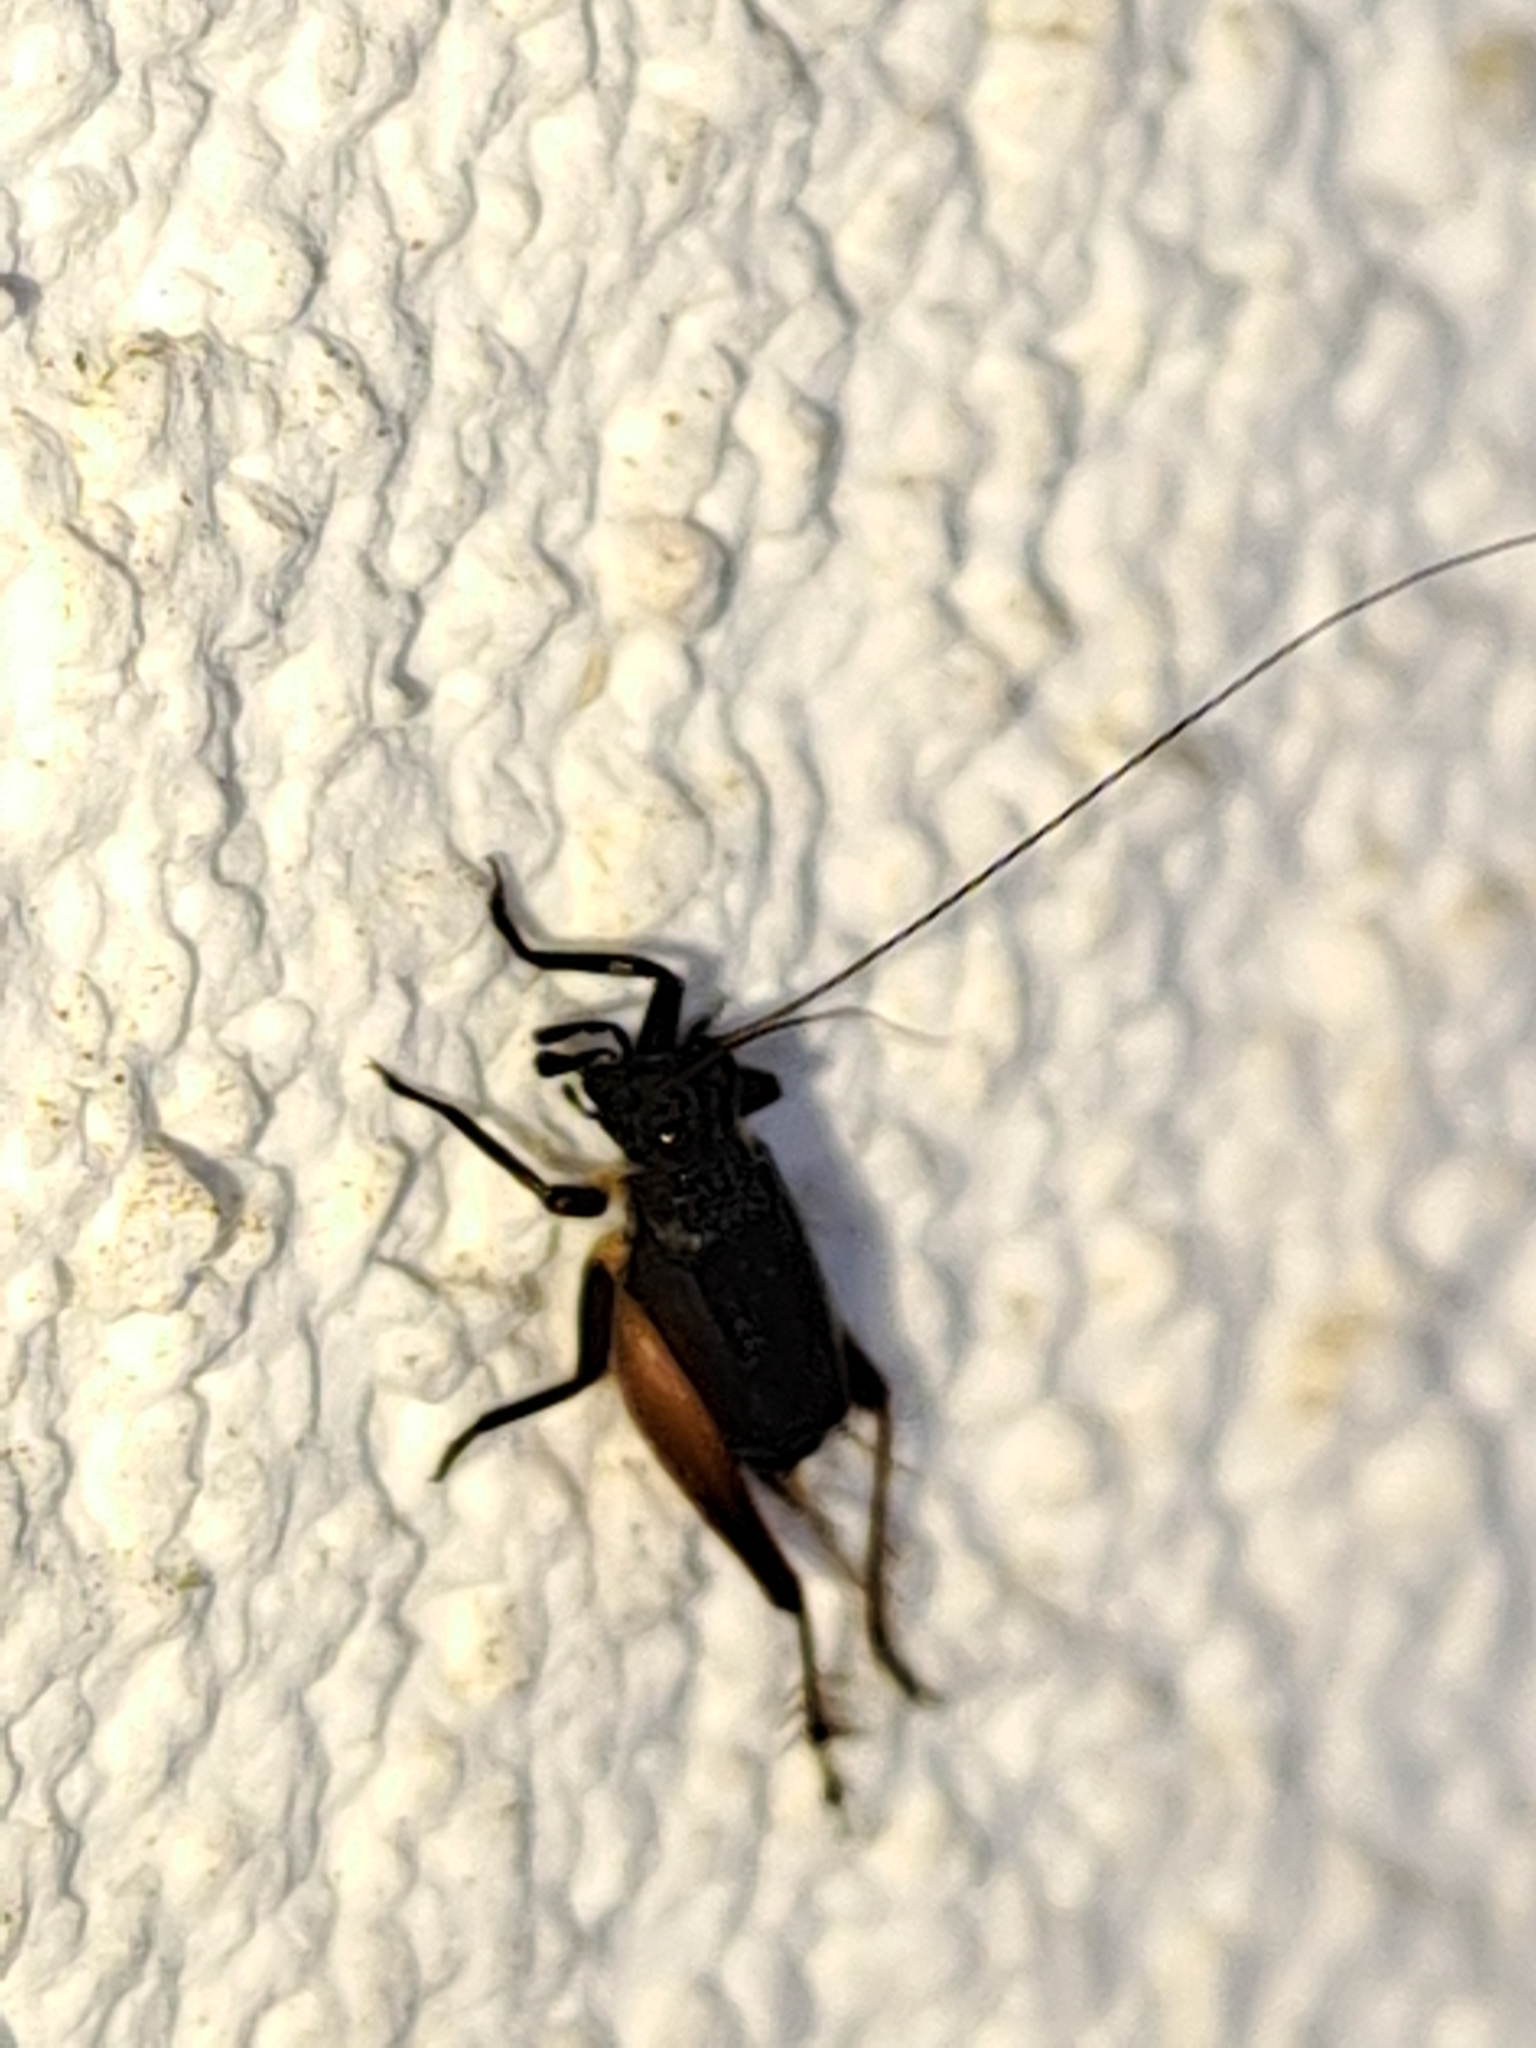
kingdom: Animalia
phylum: Arthropoda
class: Insecta
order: Orthoptera
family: Trigonidiidae
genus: Trigonidium
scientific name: Trigonidium cicindeloides
